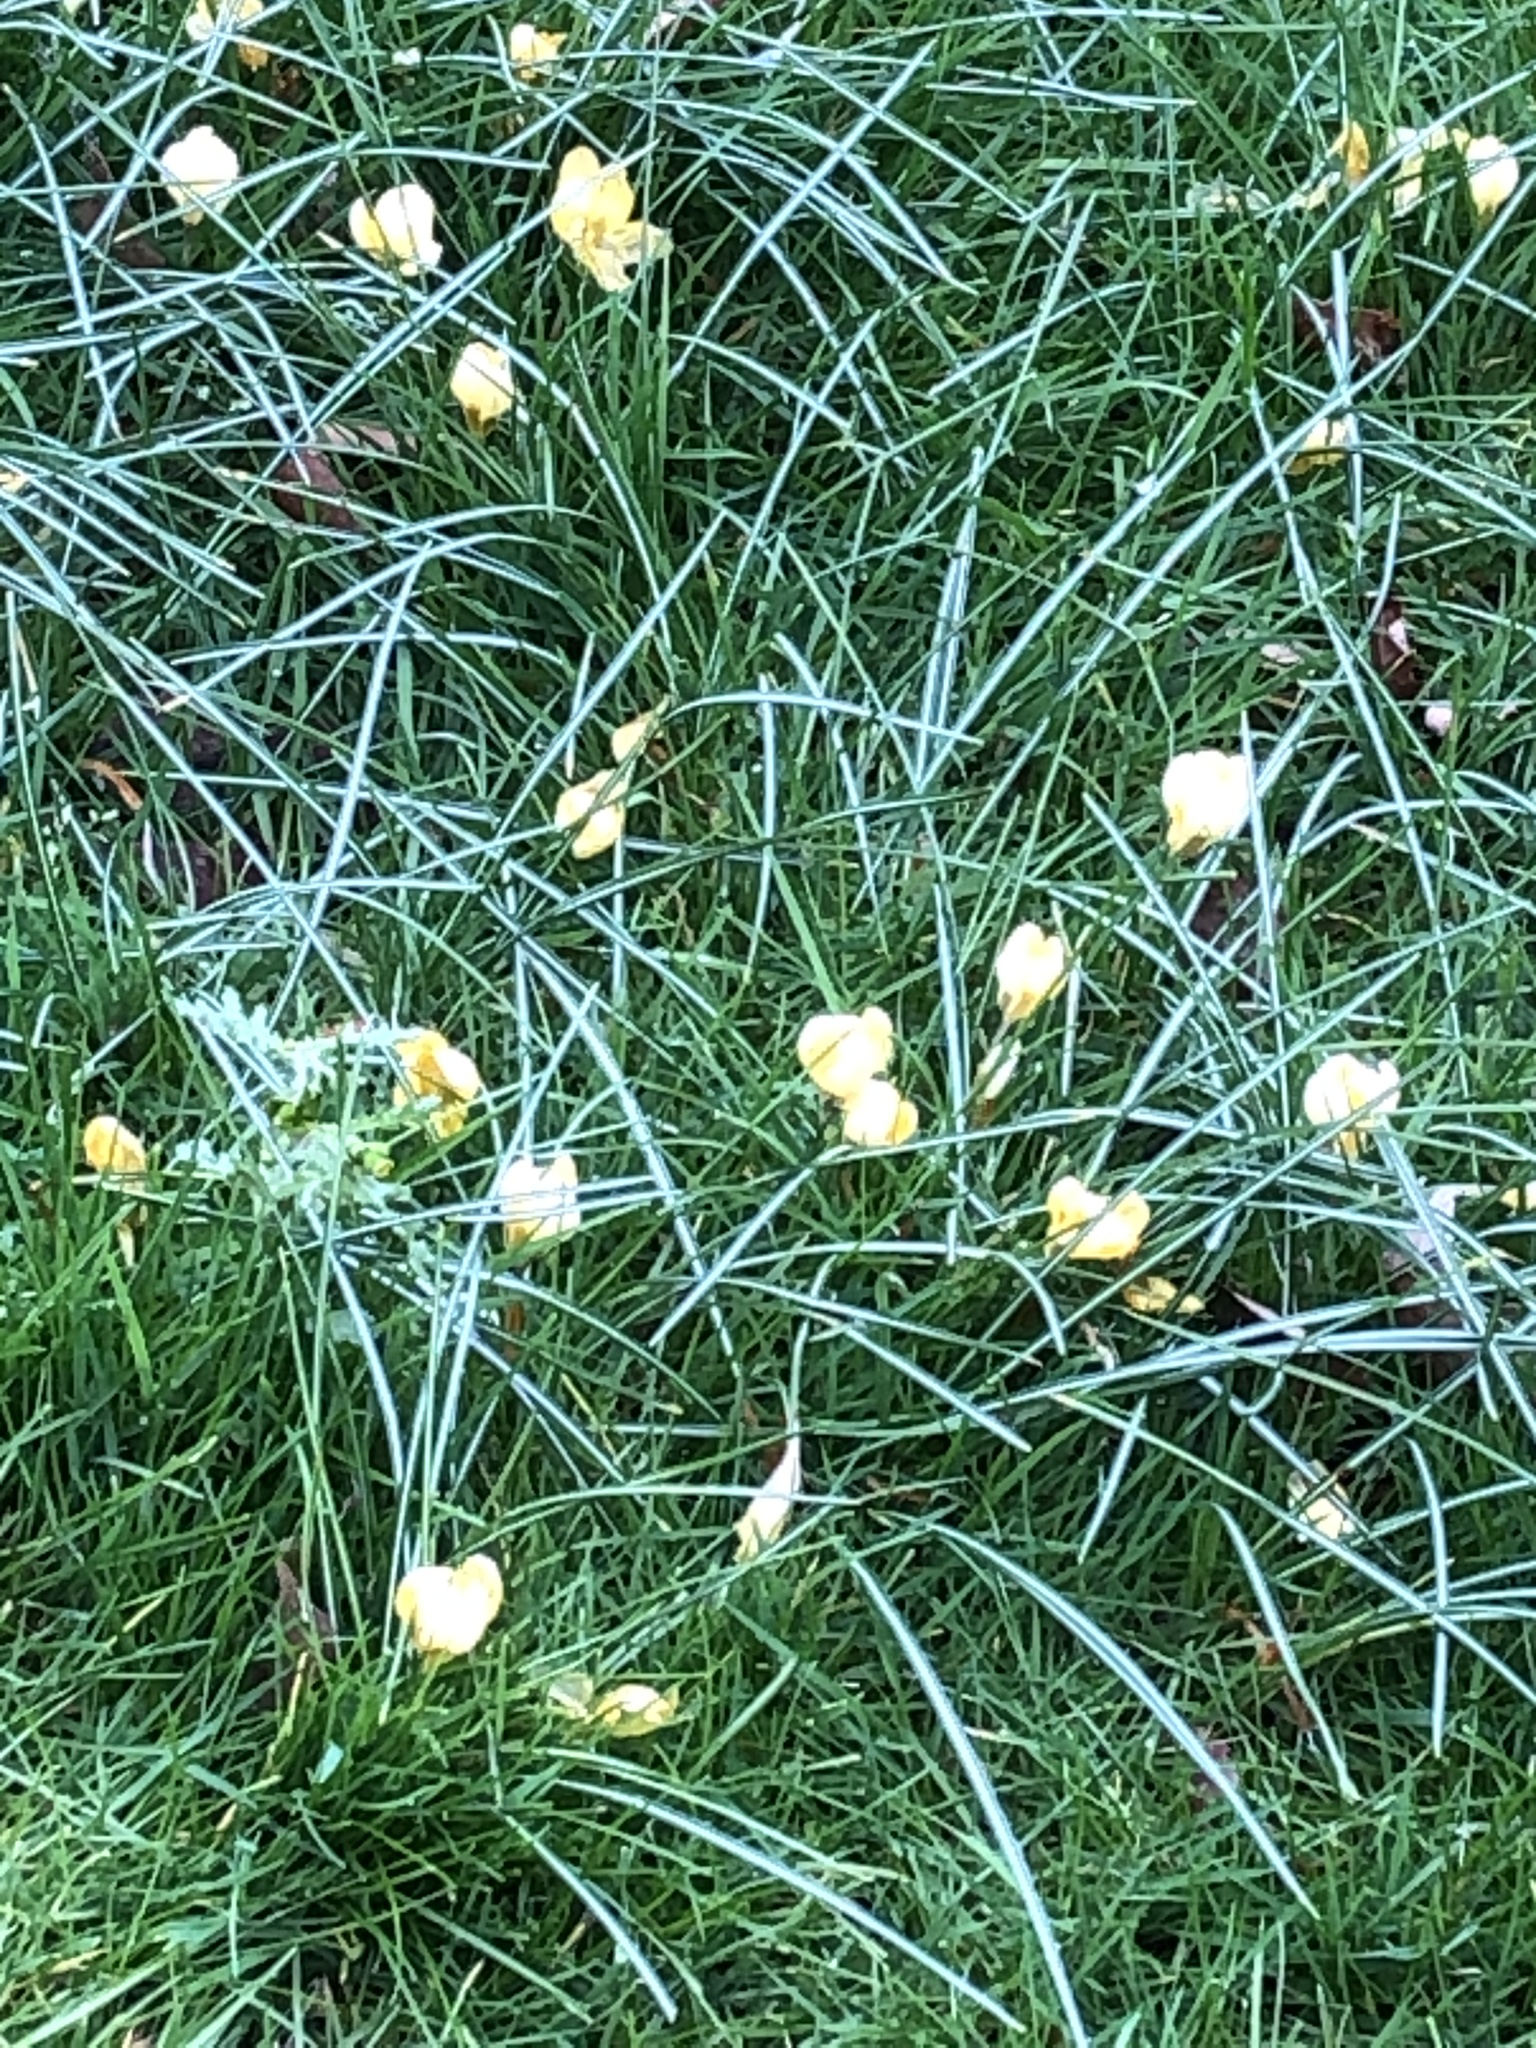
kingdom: Plantae
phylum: Tracheophyta
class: Liliopsida
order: Asparagales
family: Iridaceae
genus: Crocus
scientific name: Crocus
